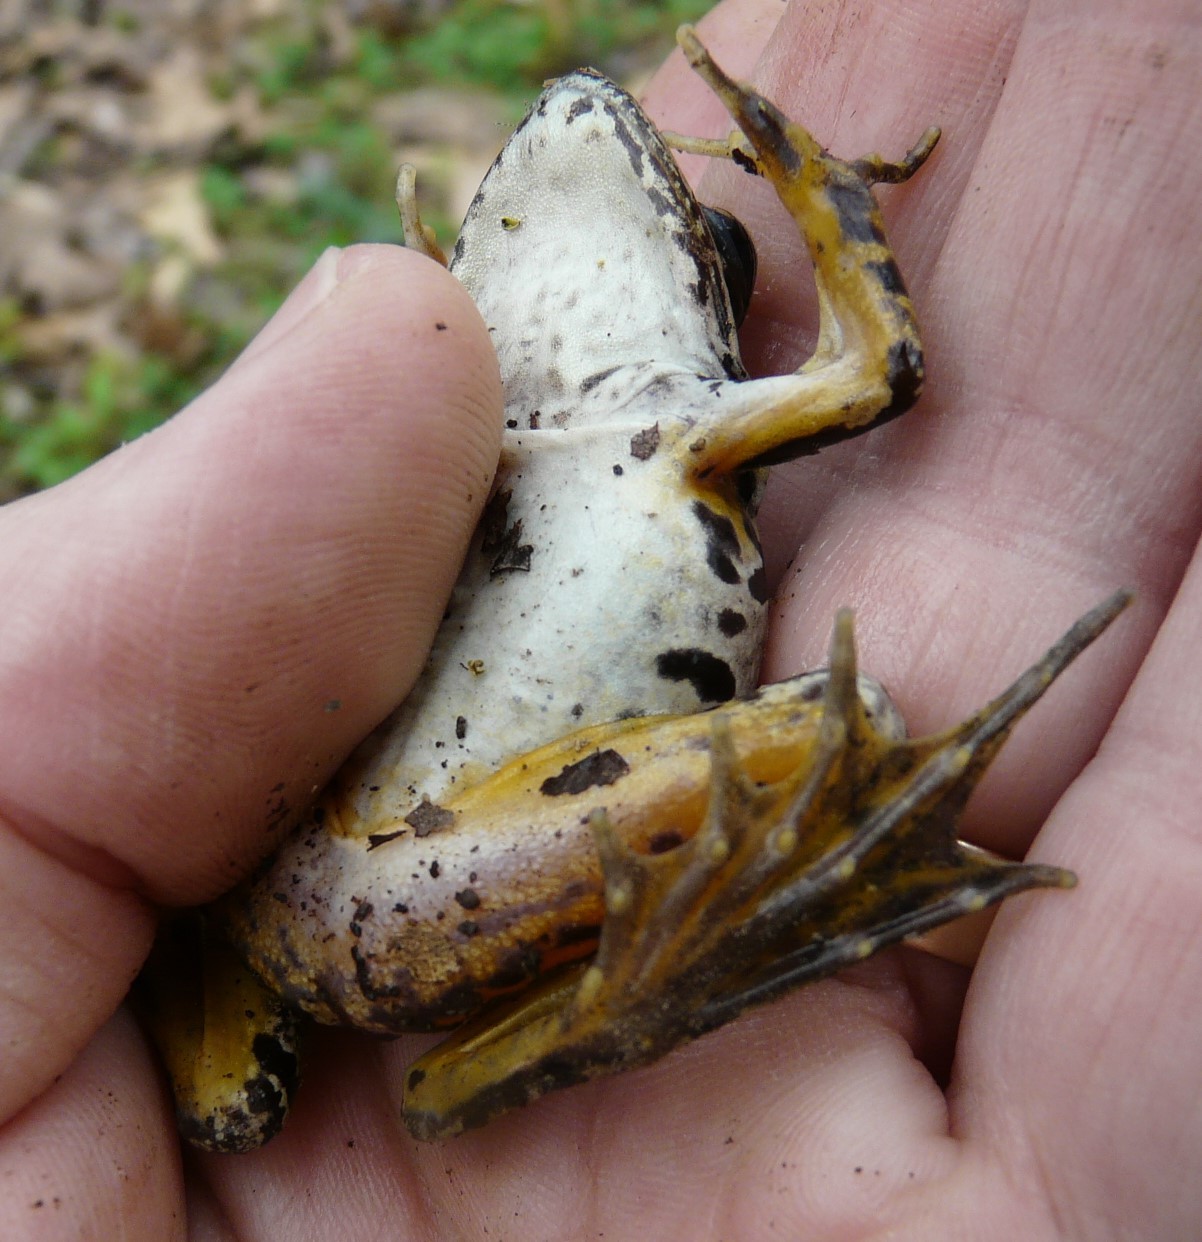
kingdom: Animalia
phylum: Chordata
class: Amphibia
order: Anura
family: Ranidae
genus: Lithobates
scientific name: Lithobates palustris
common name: Pickerel frog
